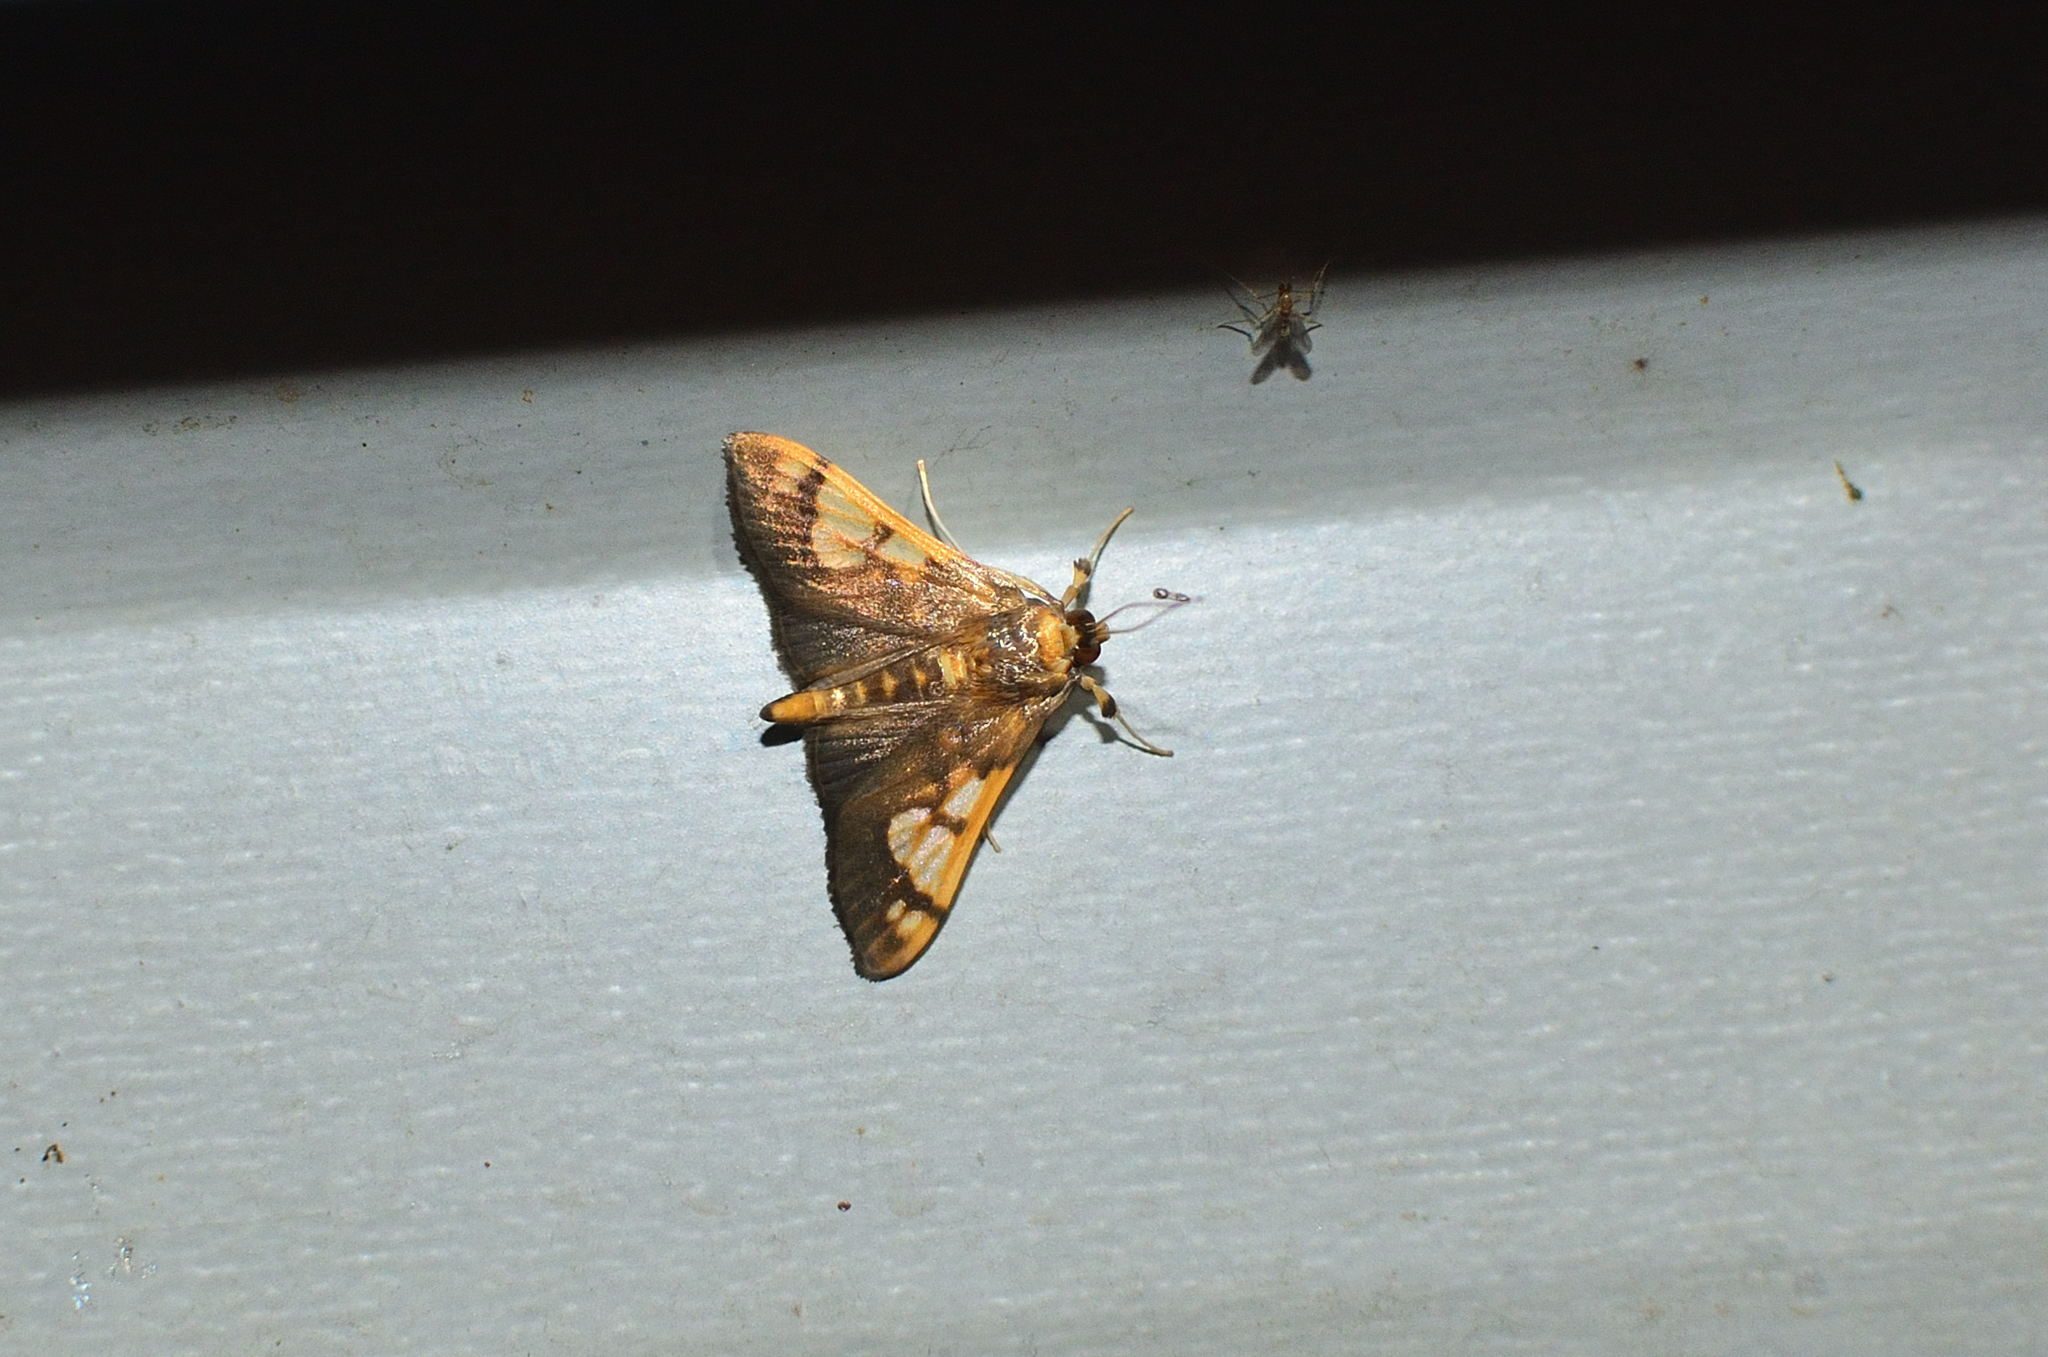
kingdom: Animalia
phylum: Arthropoda
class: Insecta
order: Lepidoptera
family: Crambidae
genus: Ulopeza
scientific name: Ulopeza idyalis
